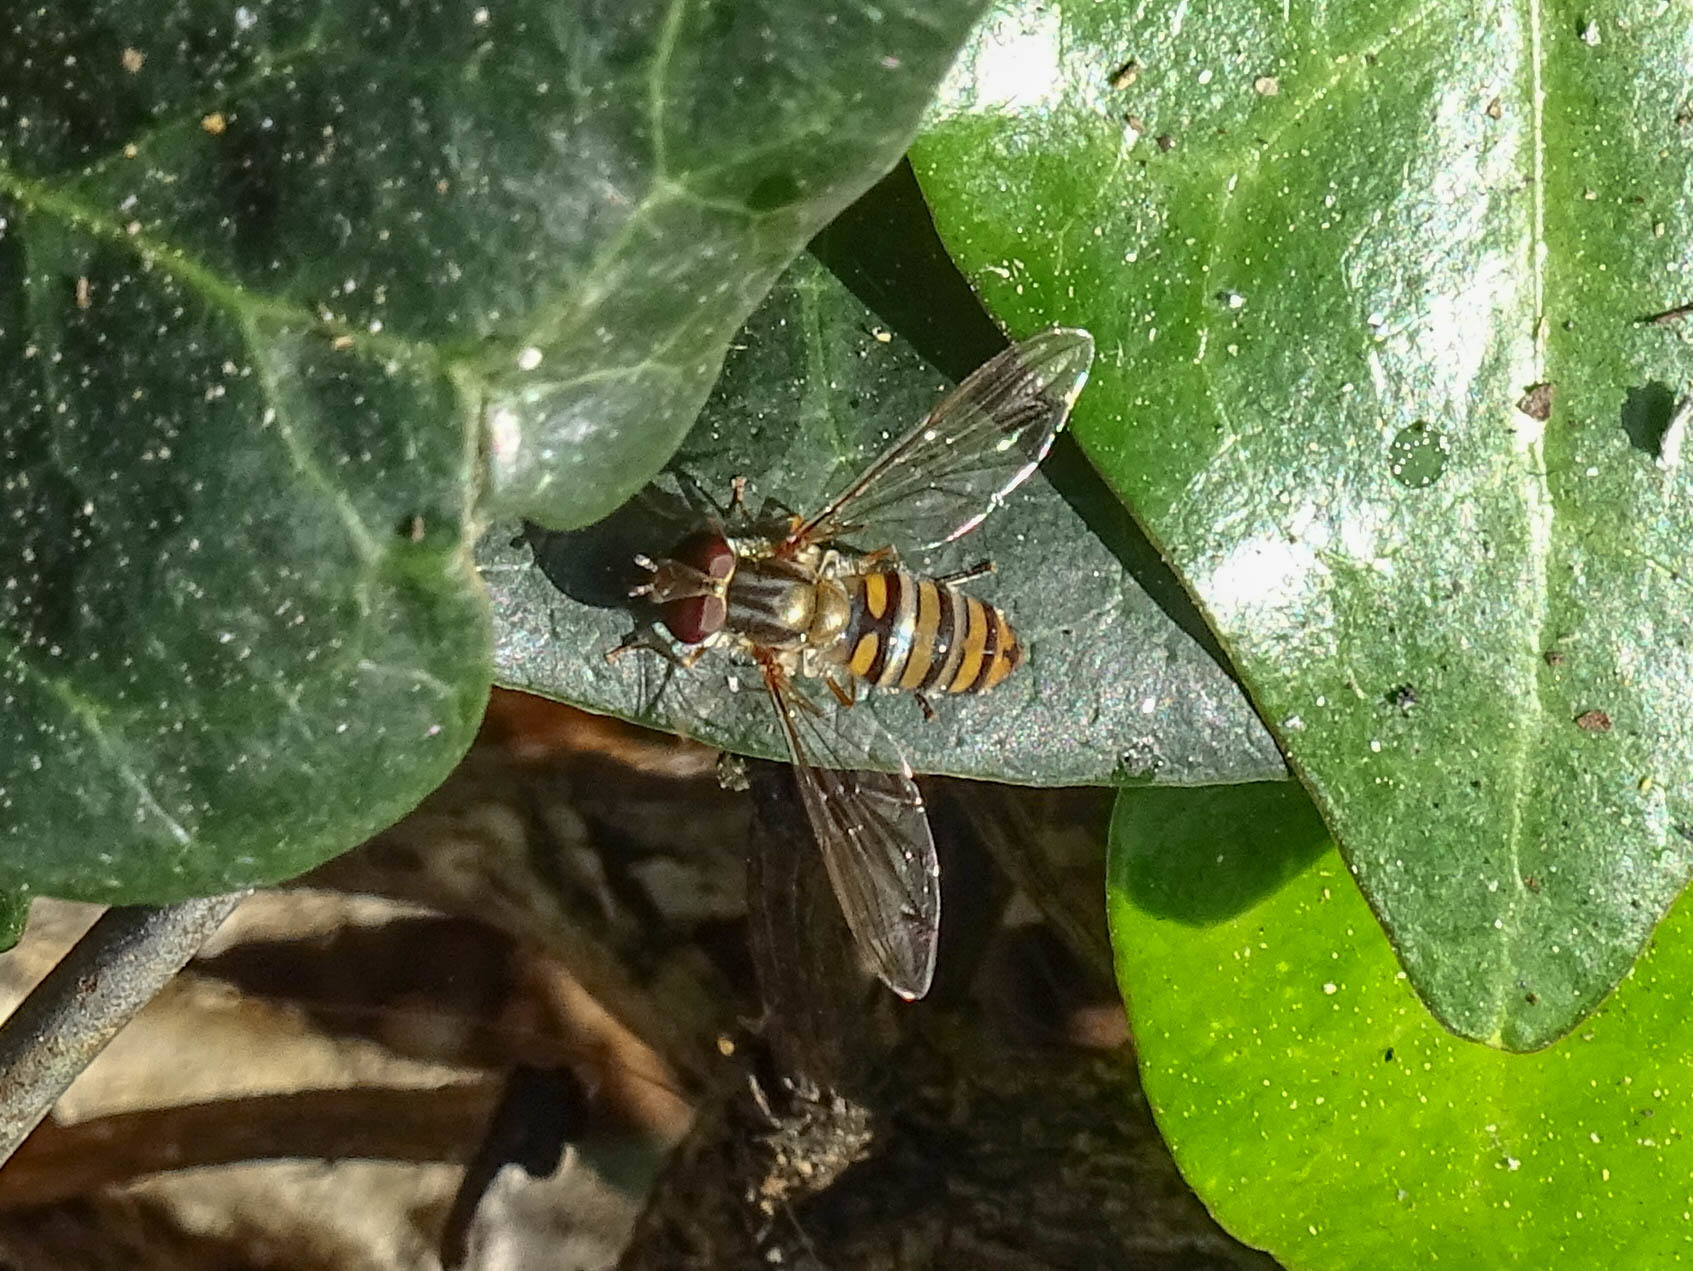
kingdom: Animalia
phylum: Arthropoda
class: Insecta
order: Diptera
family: Syrphidae
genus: Episyrphus
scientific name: Episyrphus balteatus
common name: Marmalade hoverfly
